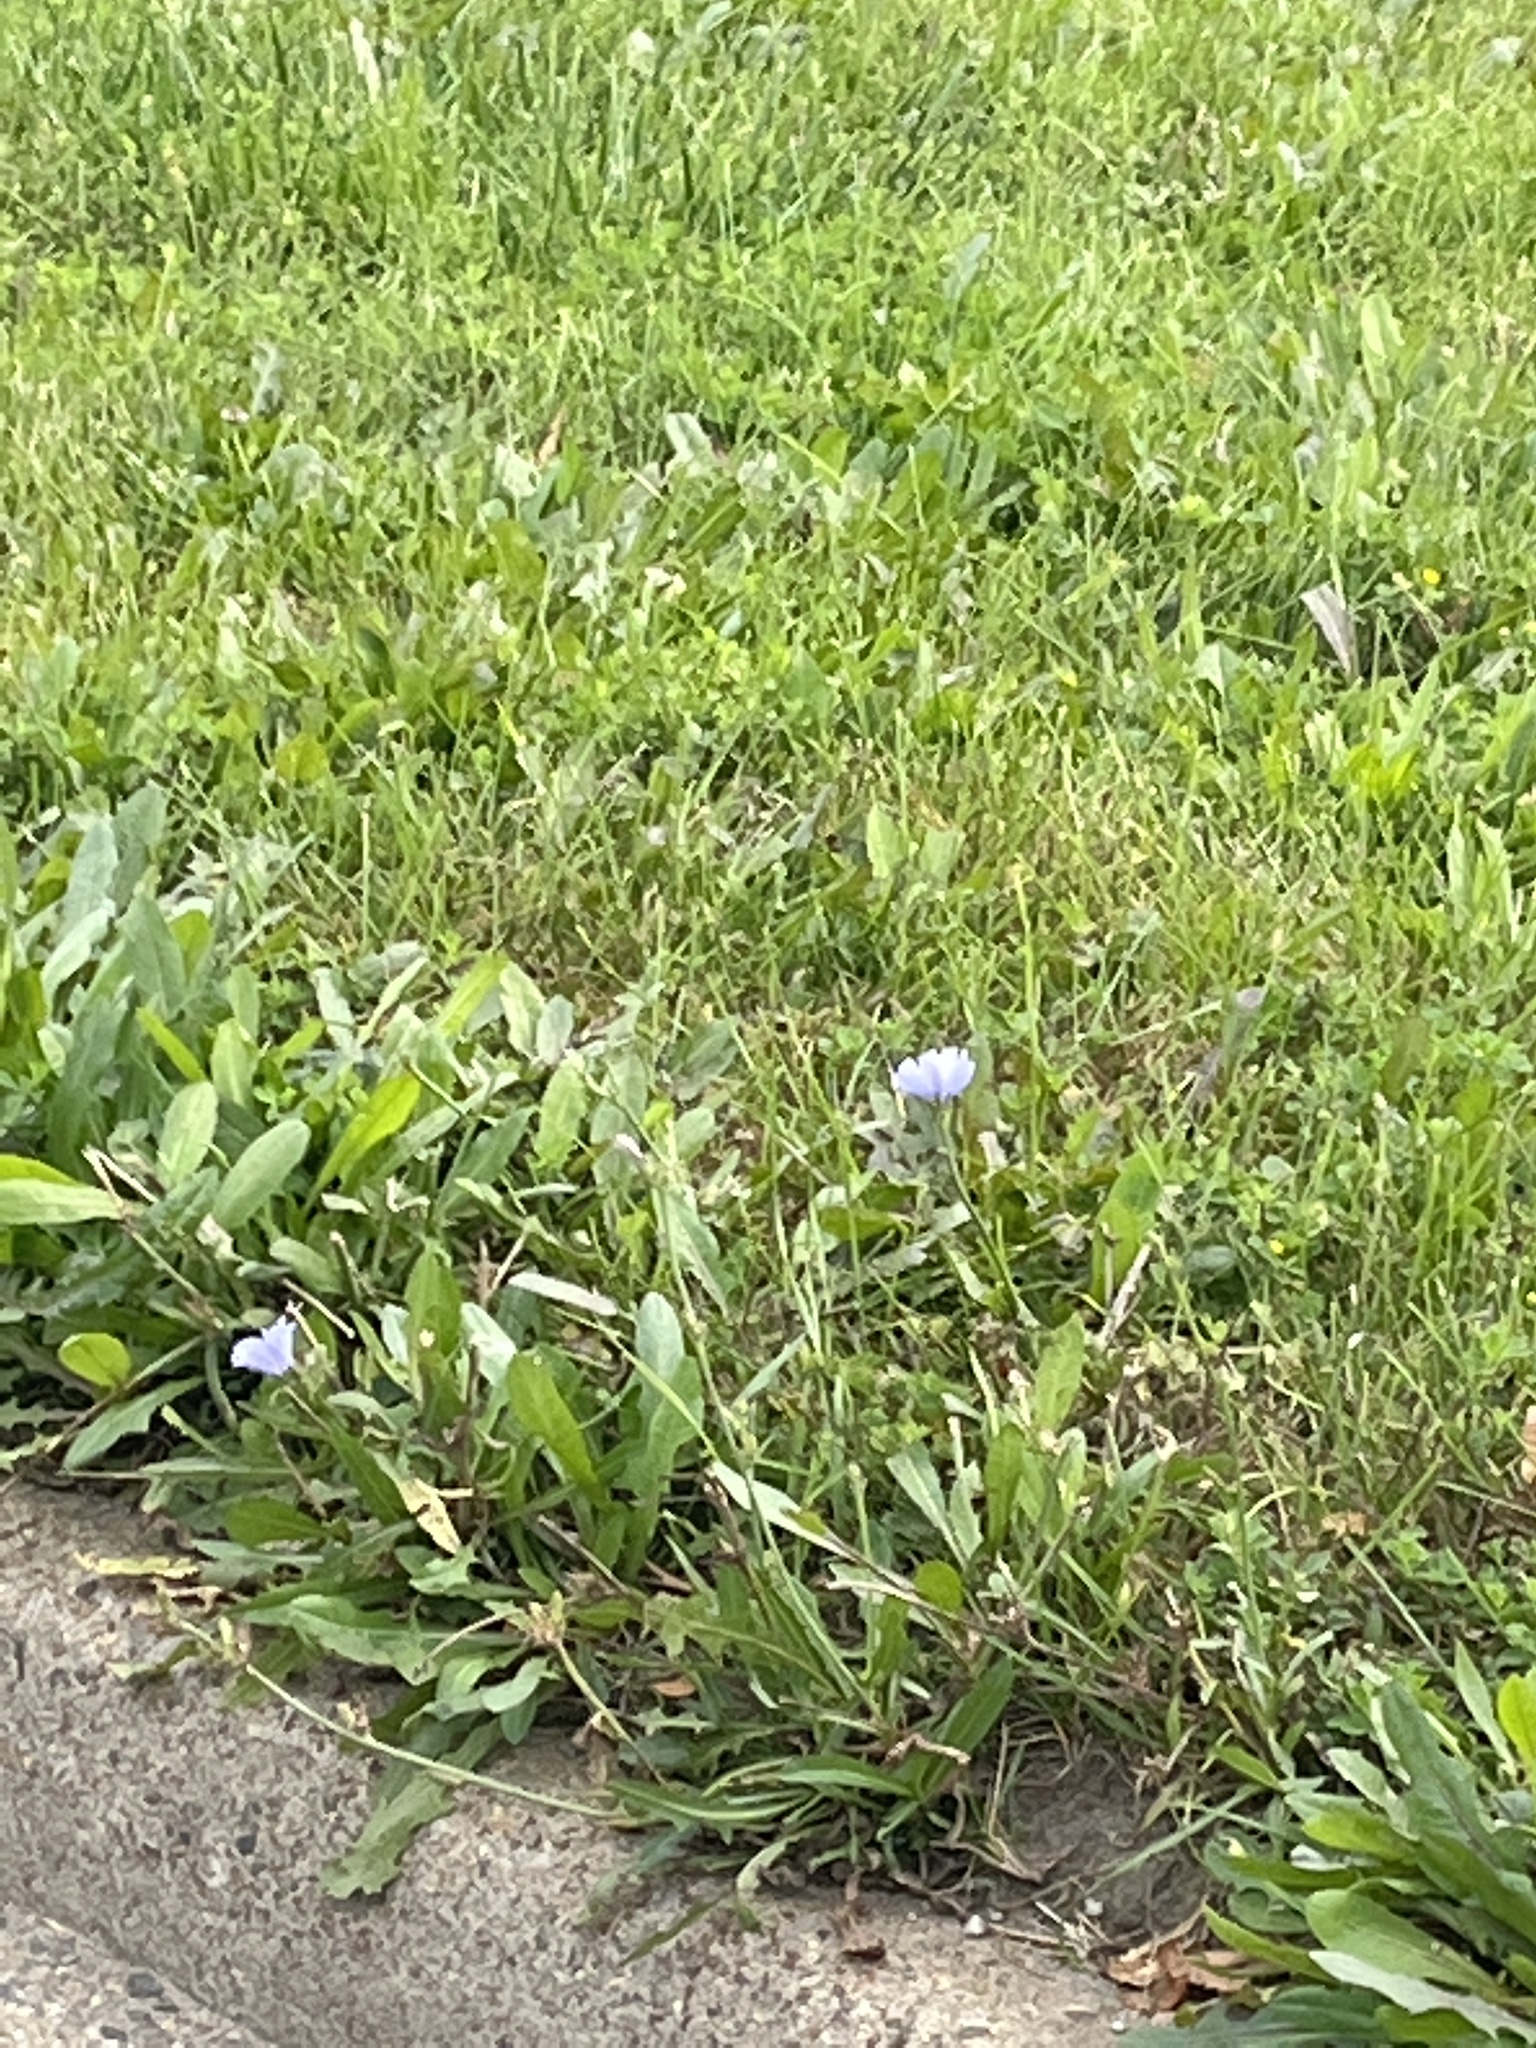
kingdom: Plantae
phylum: Tracheophyta
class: Magnoliopsida
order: Asterales
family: Asteraceae
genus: Cichorium
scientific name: Cichorium intybus
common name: Chicory
